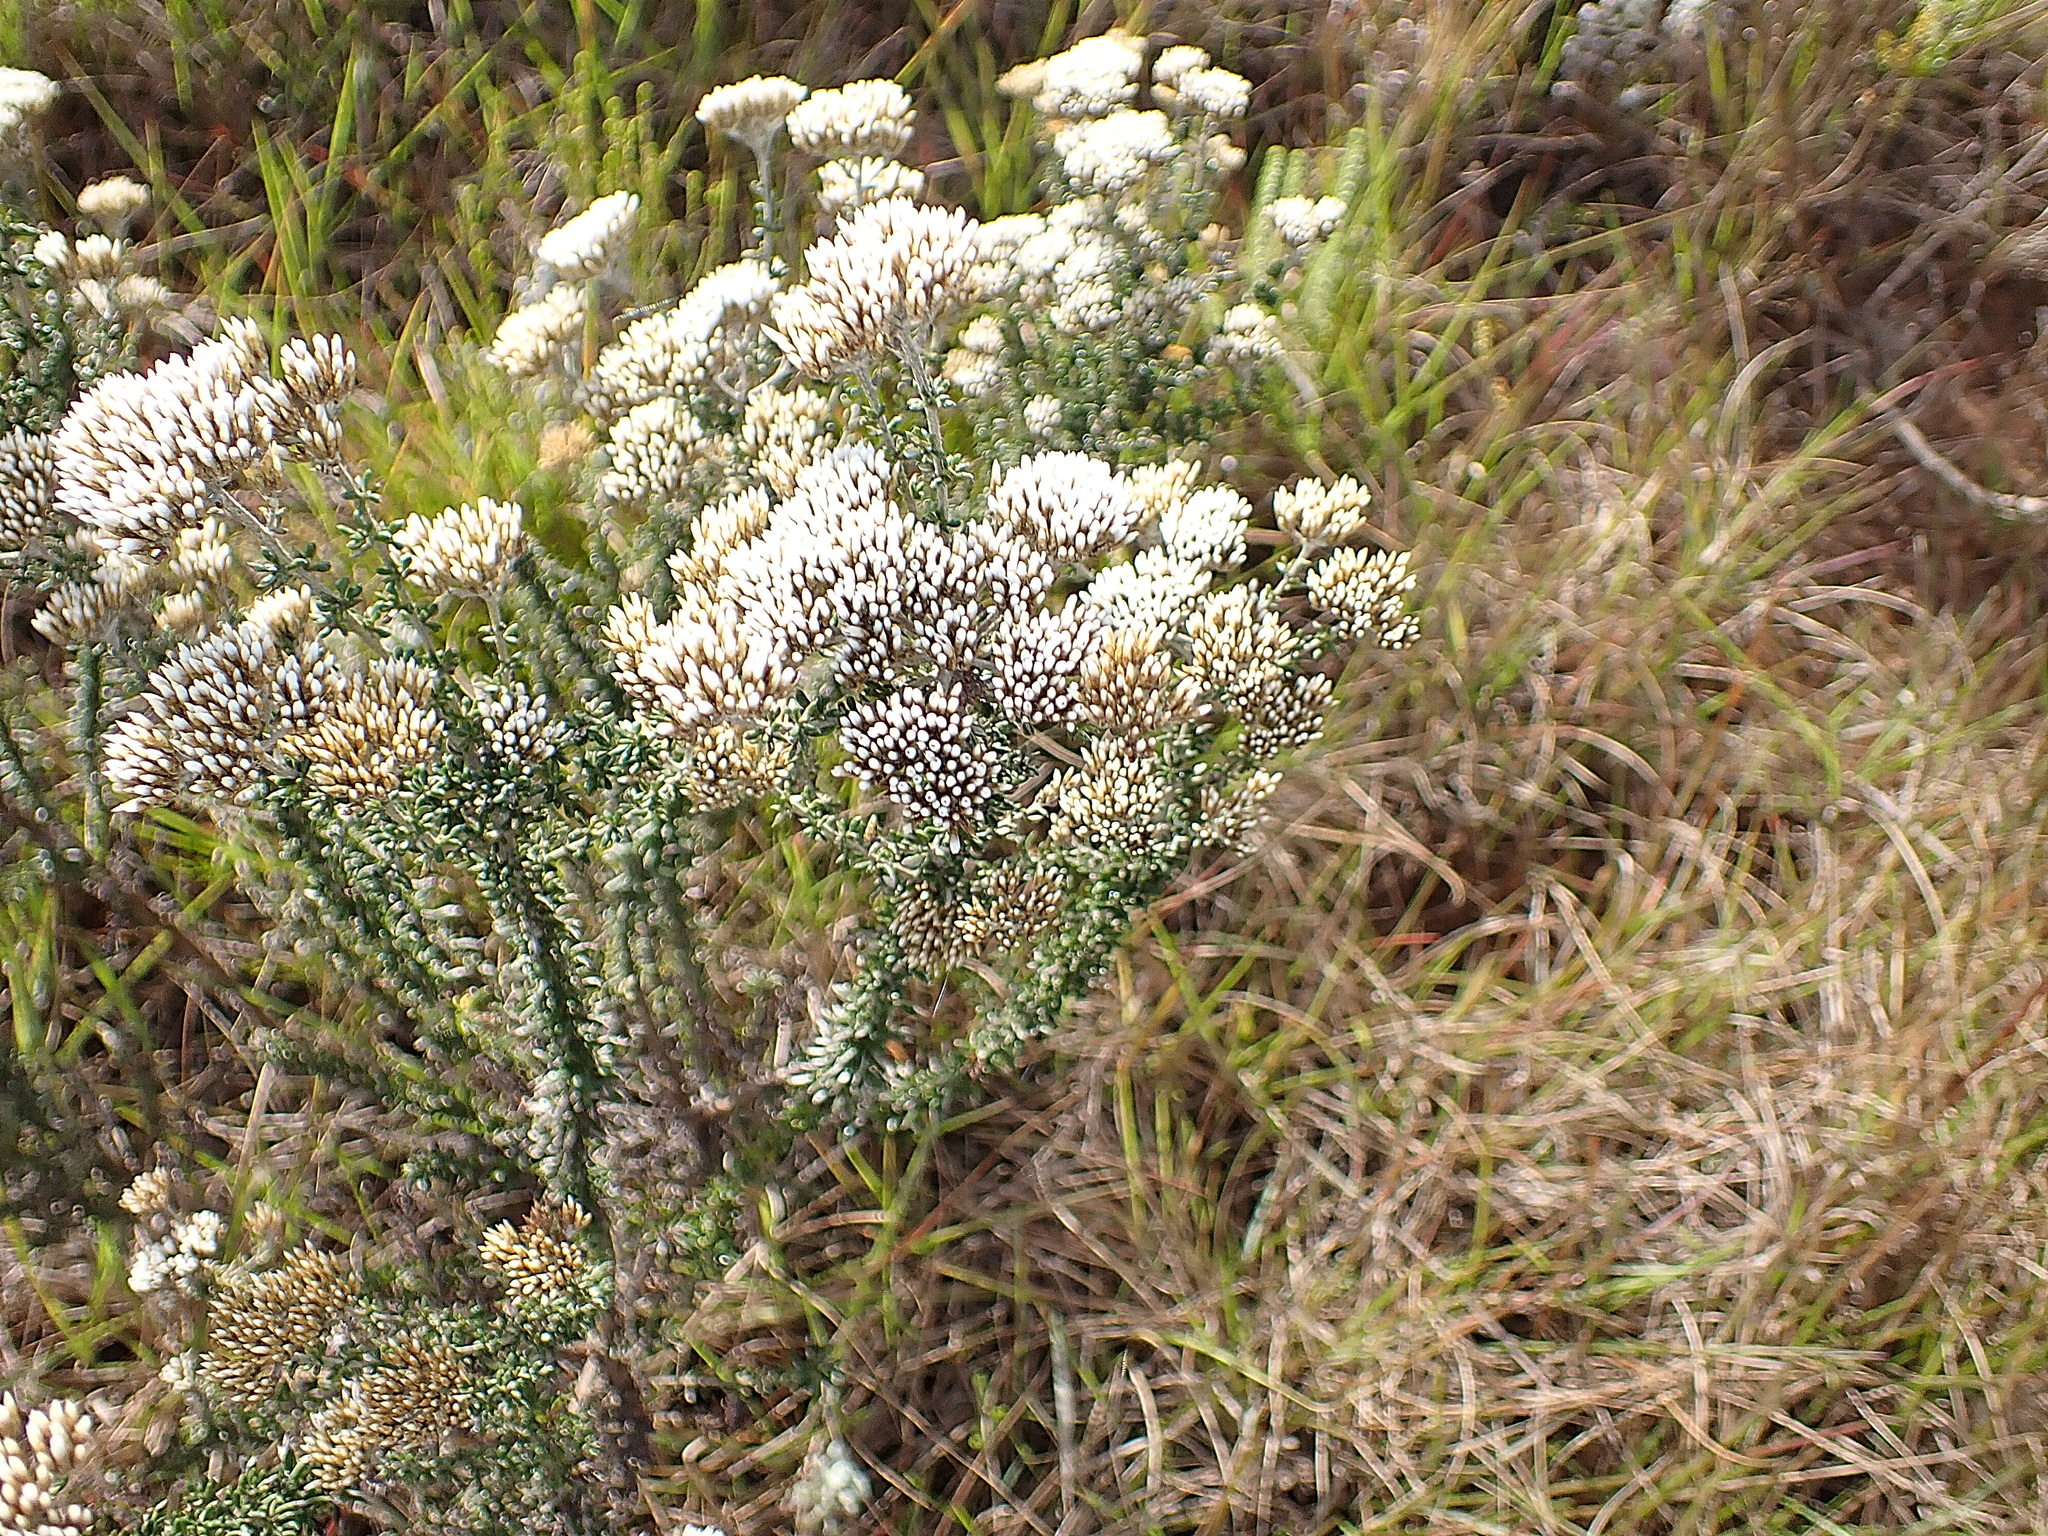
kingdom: Plantae
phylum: Tracheophyta
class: Magnoliopsida
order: Asterales
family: Asteraceae
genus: Metalasia
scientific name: Metalasia densa
